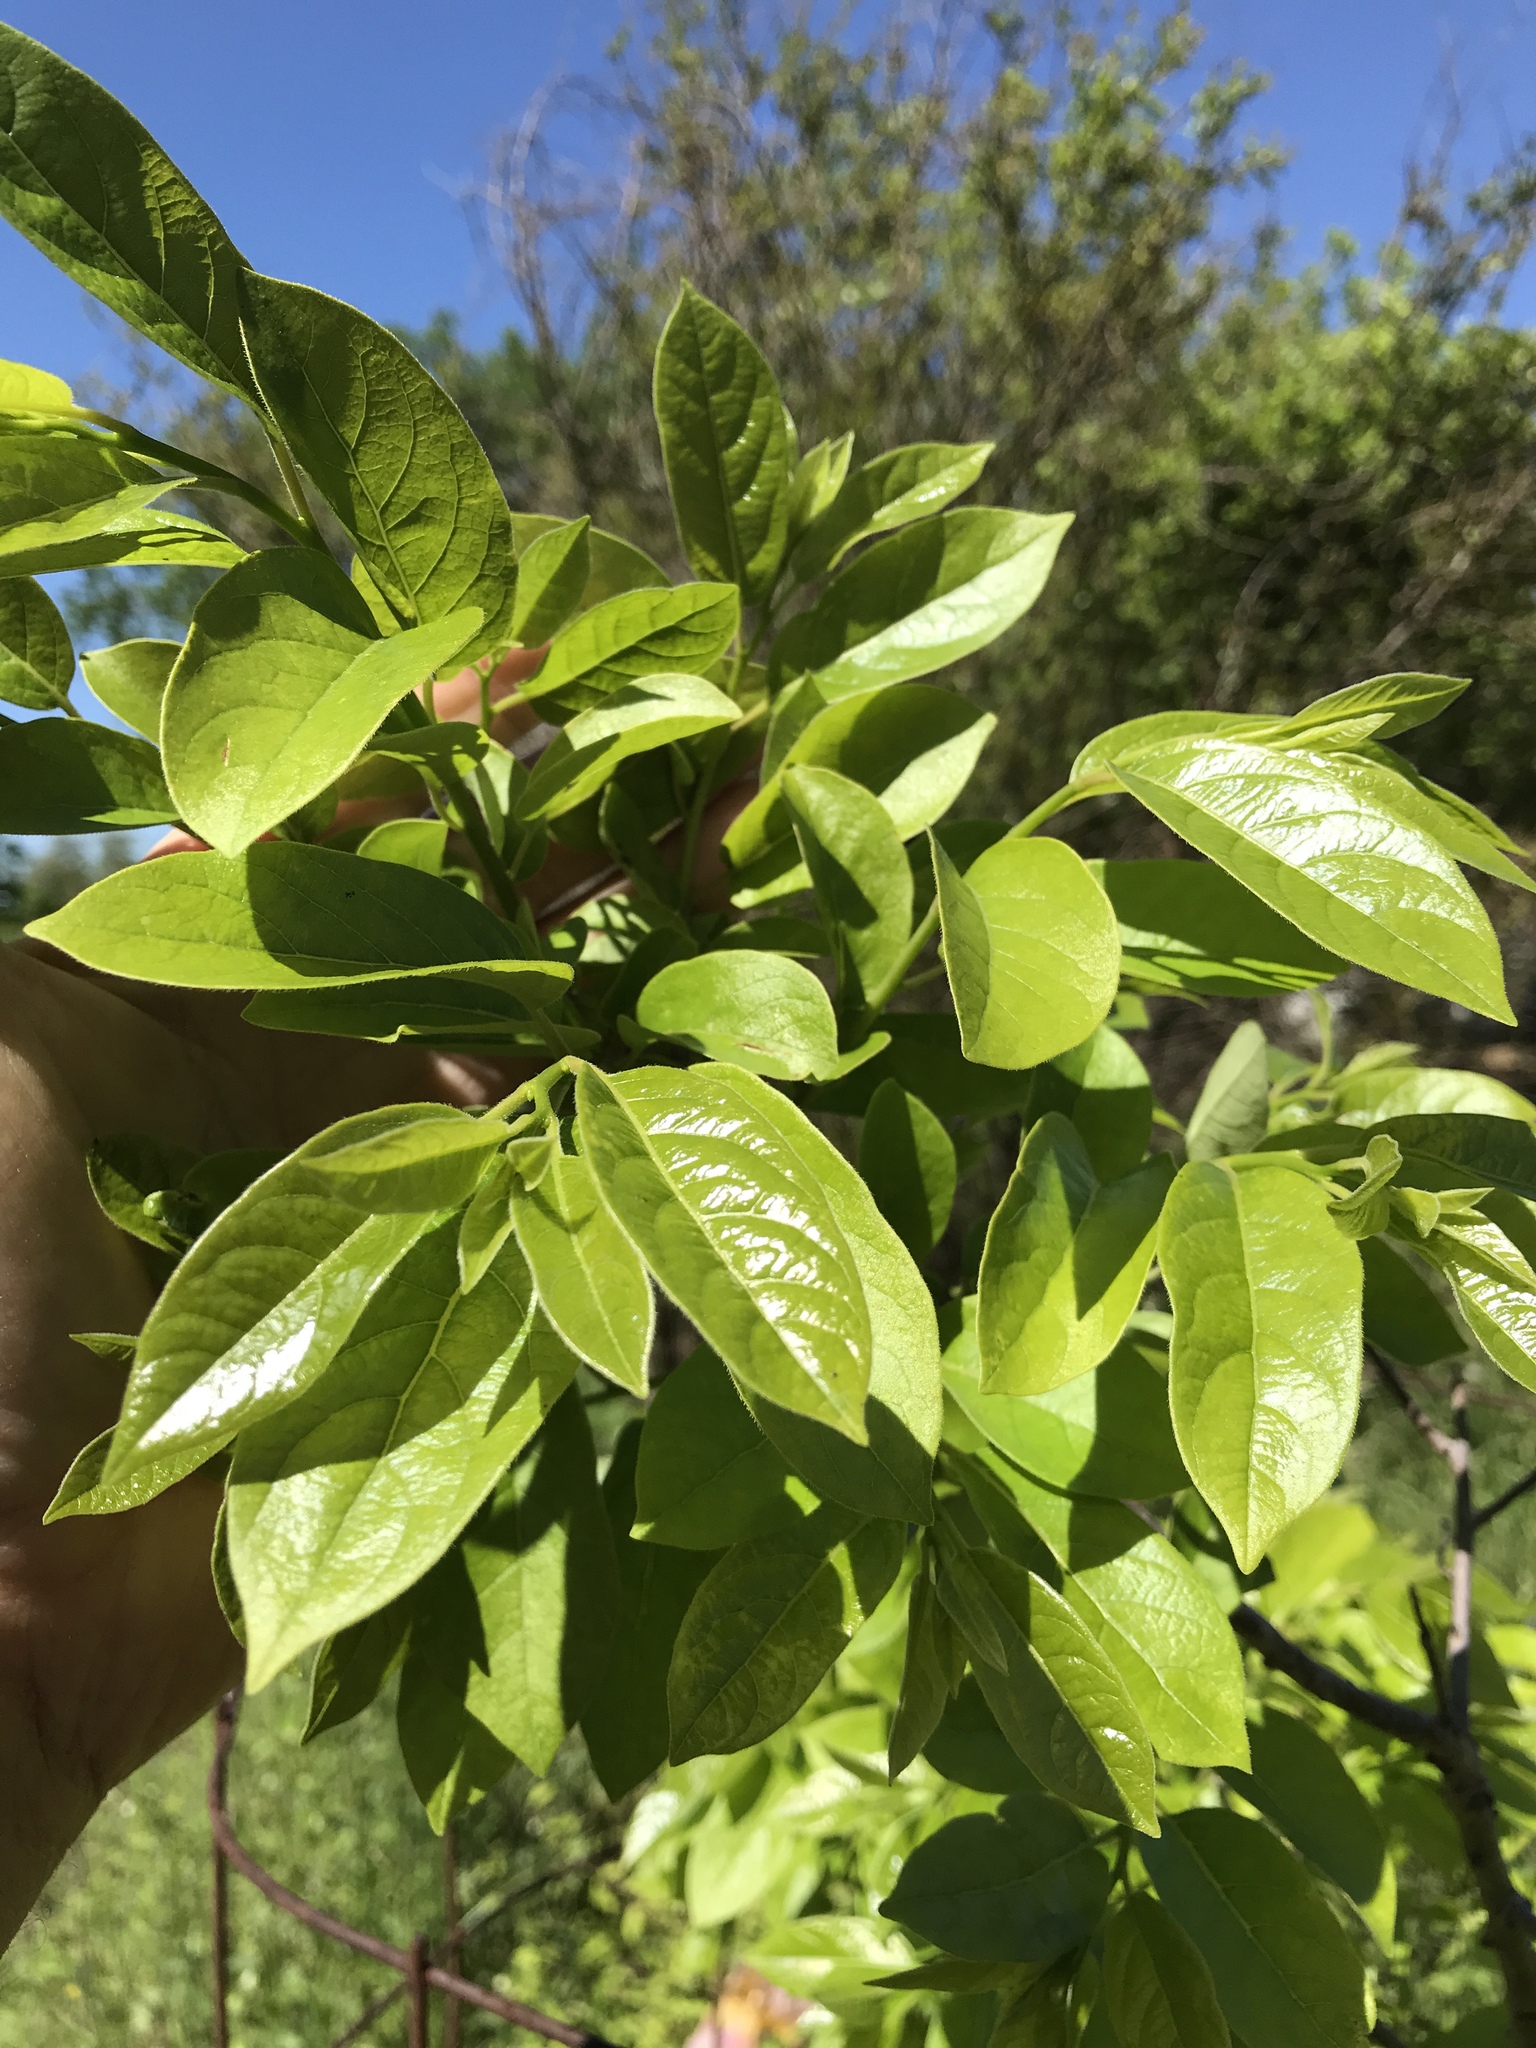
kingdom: Plantae
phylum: Tracheophyta
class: Magnoliopsida
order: Ericales
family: Ebenaceae
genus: Diospyros
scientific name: Diospyros virginiana
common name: Persimmon
